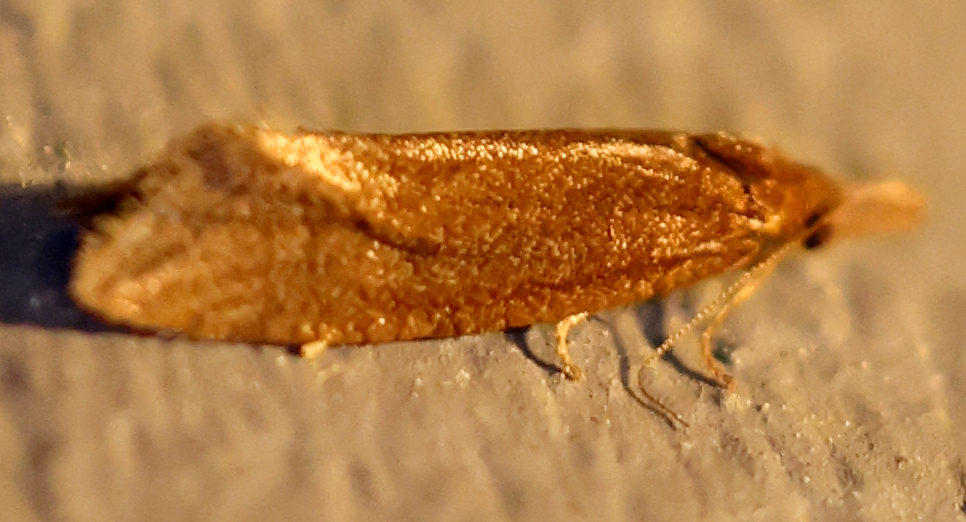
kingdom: Animalia
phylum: Arthropoda
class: Insecta
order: Lepidoptera
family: Tortricidae
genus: Aethes
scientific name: Aethes biscana
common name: Reddish aethes
